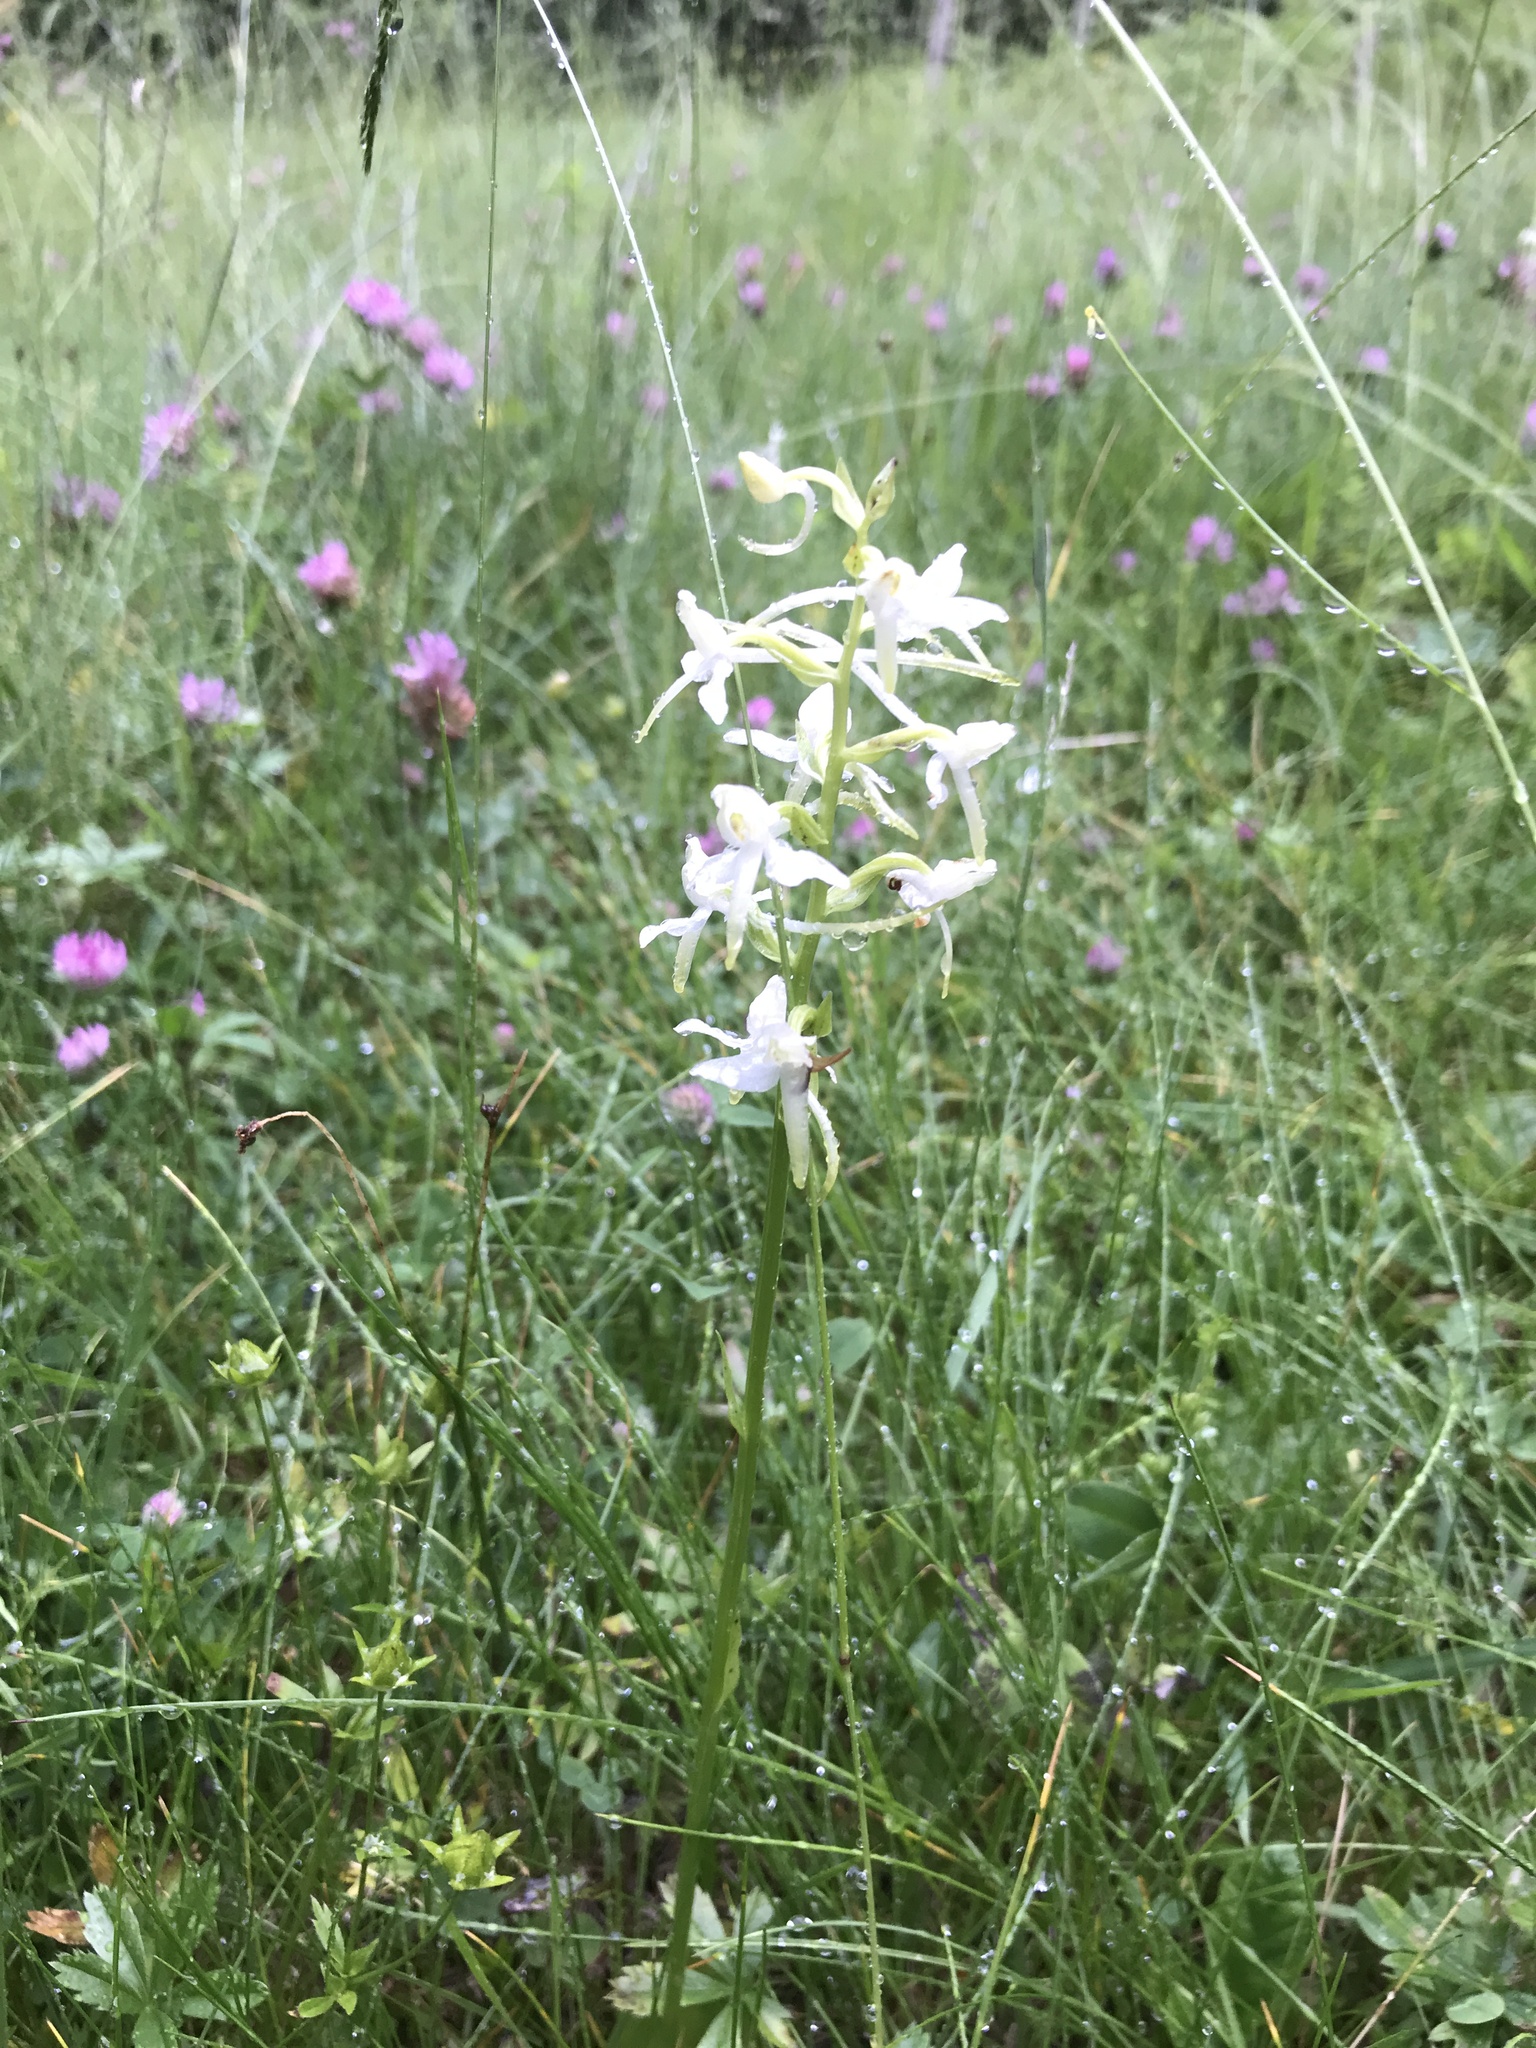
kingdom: Plantae
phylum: Tracheophyta
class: Liliopsida
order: Asparagales
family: Orchidaceae
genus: Platanthera
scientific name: Platanthera bifolia
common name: Lesser butterfly-orchid
